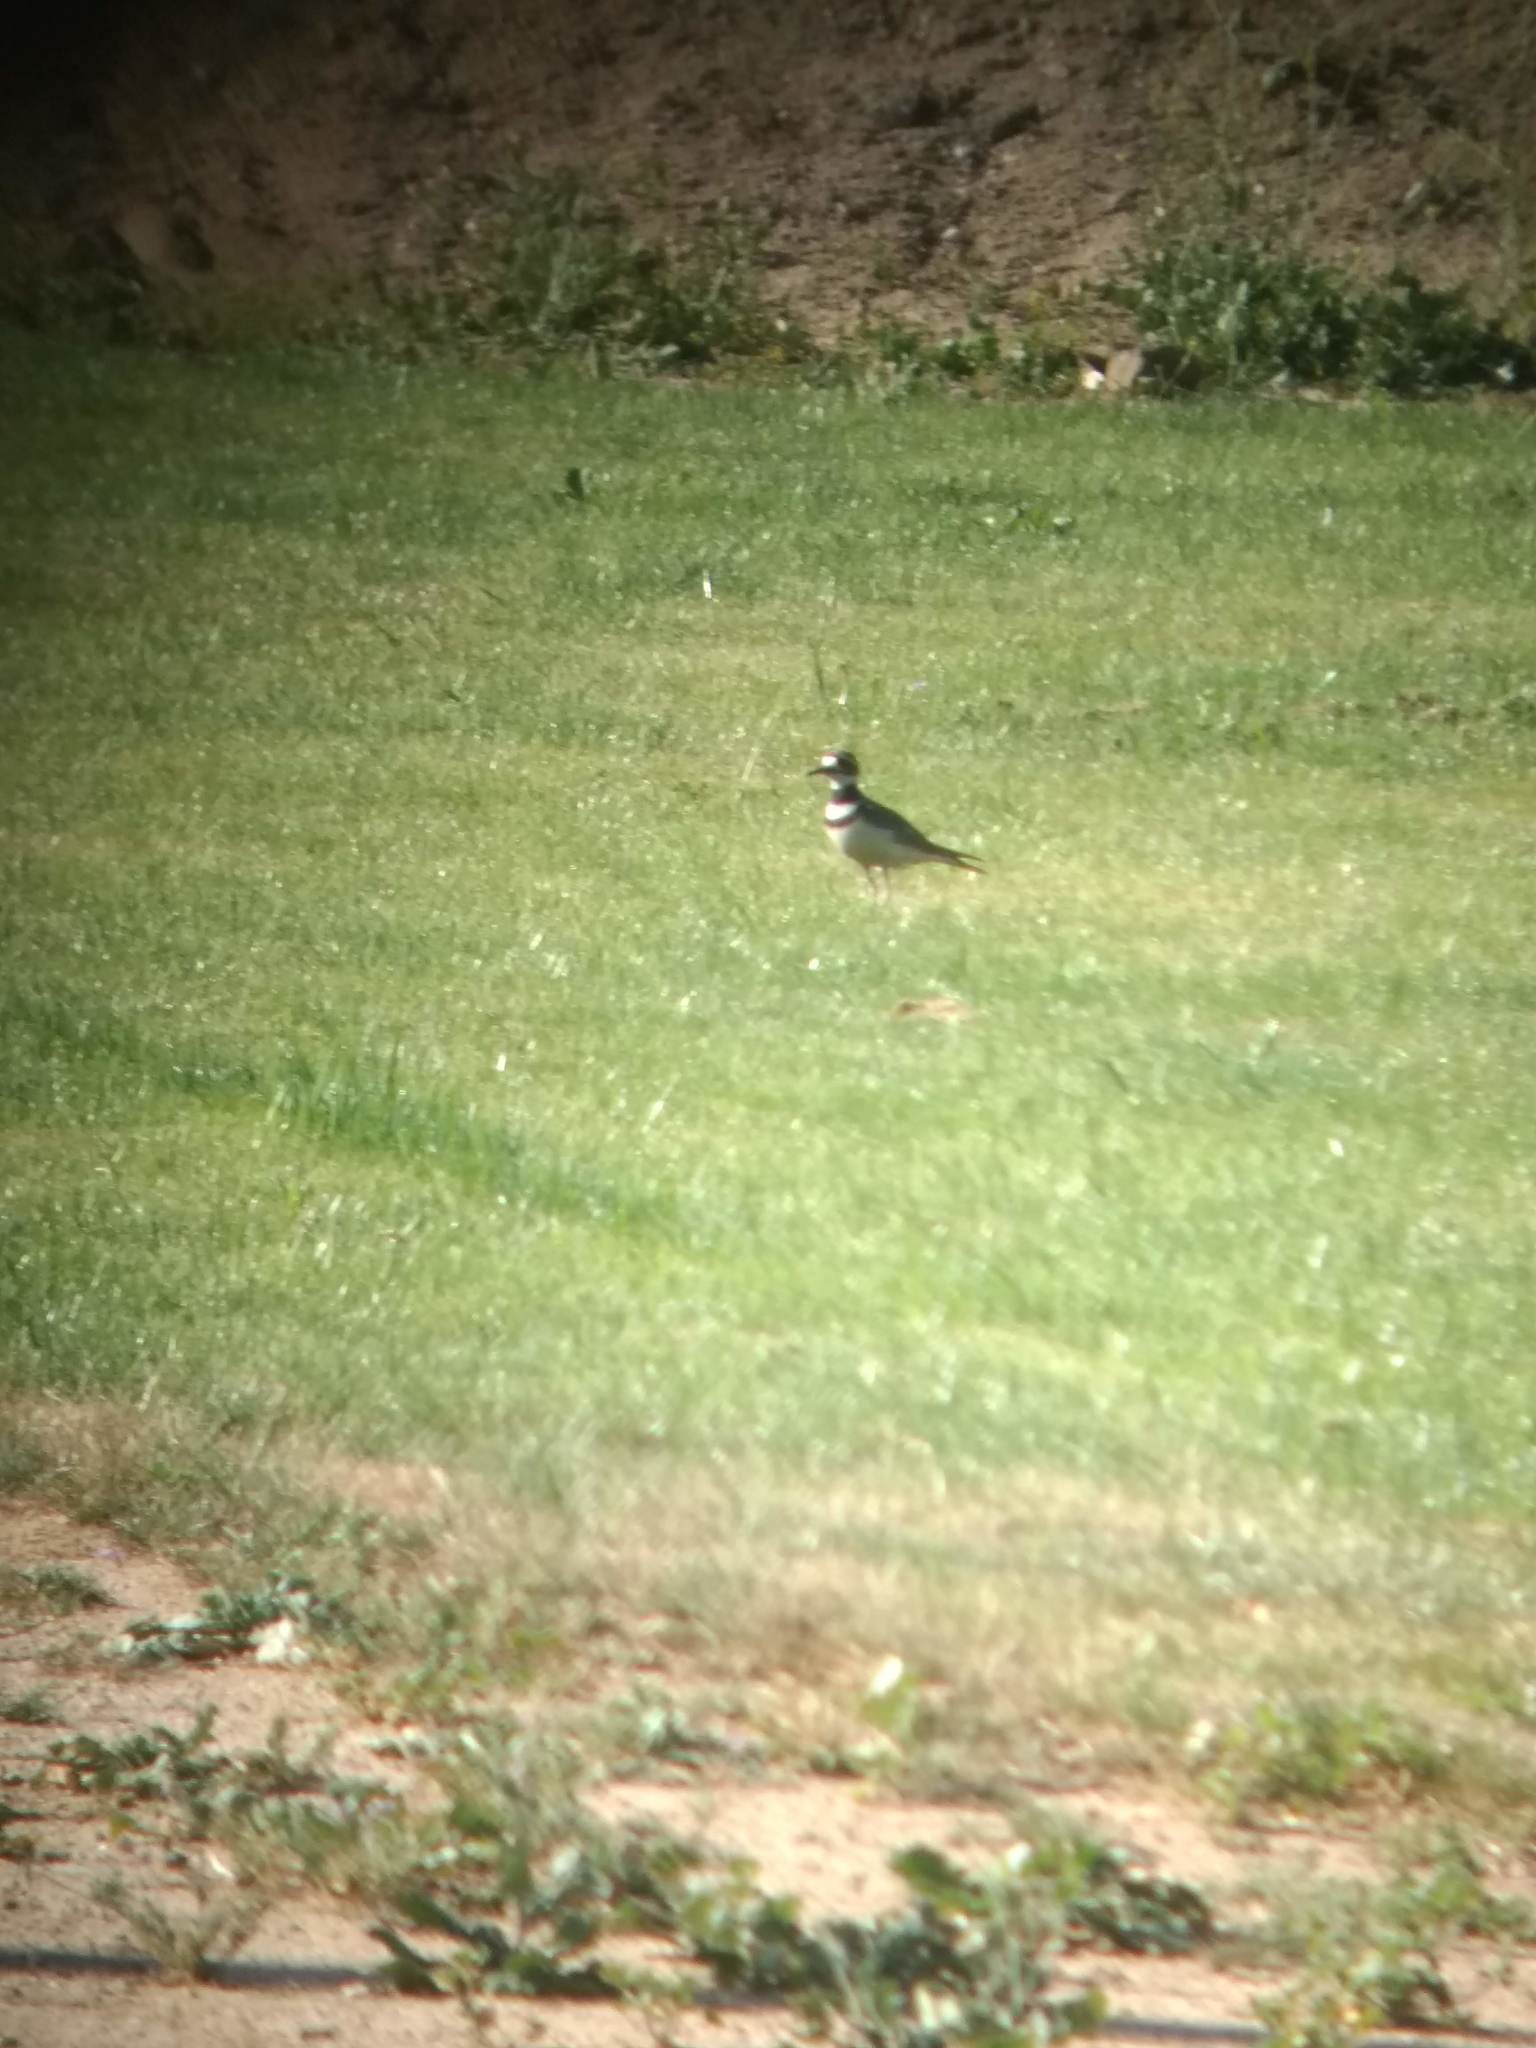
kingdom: Animalia
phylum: Chordata
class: Aves
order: Charadriiformes
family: Charadriidae
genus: Charadrius
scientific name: Charadrius vociferus
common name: Killdeer
